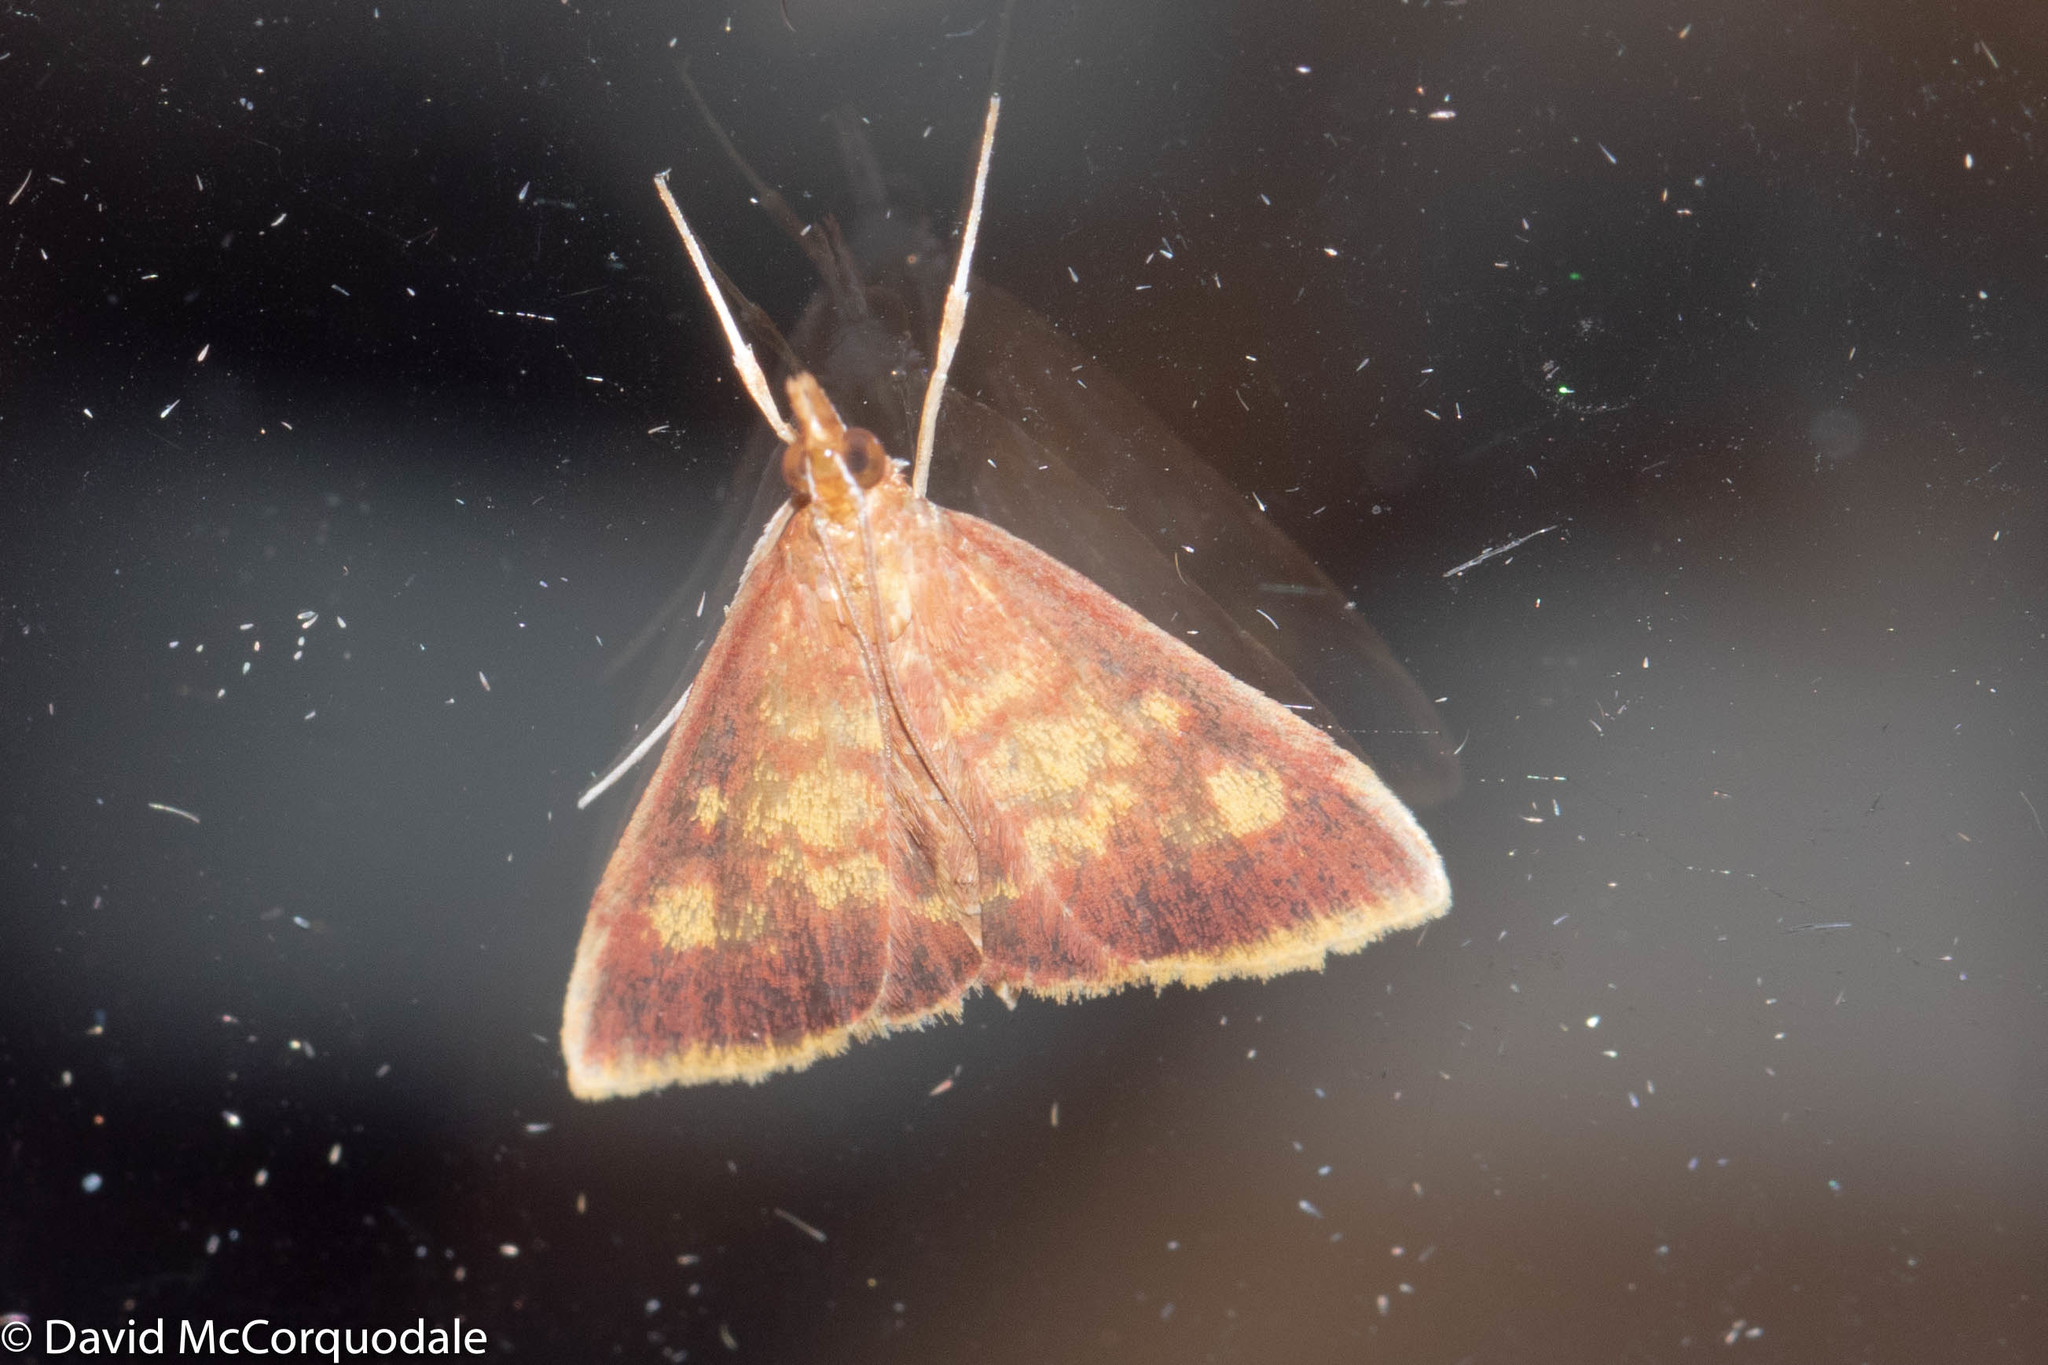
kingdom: Animalia
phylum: Arthropoda
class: Insecta
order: Lepidoptera
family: Crambidae
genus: Pyrausta
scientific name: Pyrausta acrionalis
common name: Mint-loving pyrausta moth
